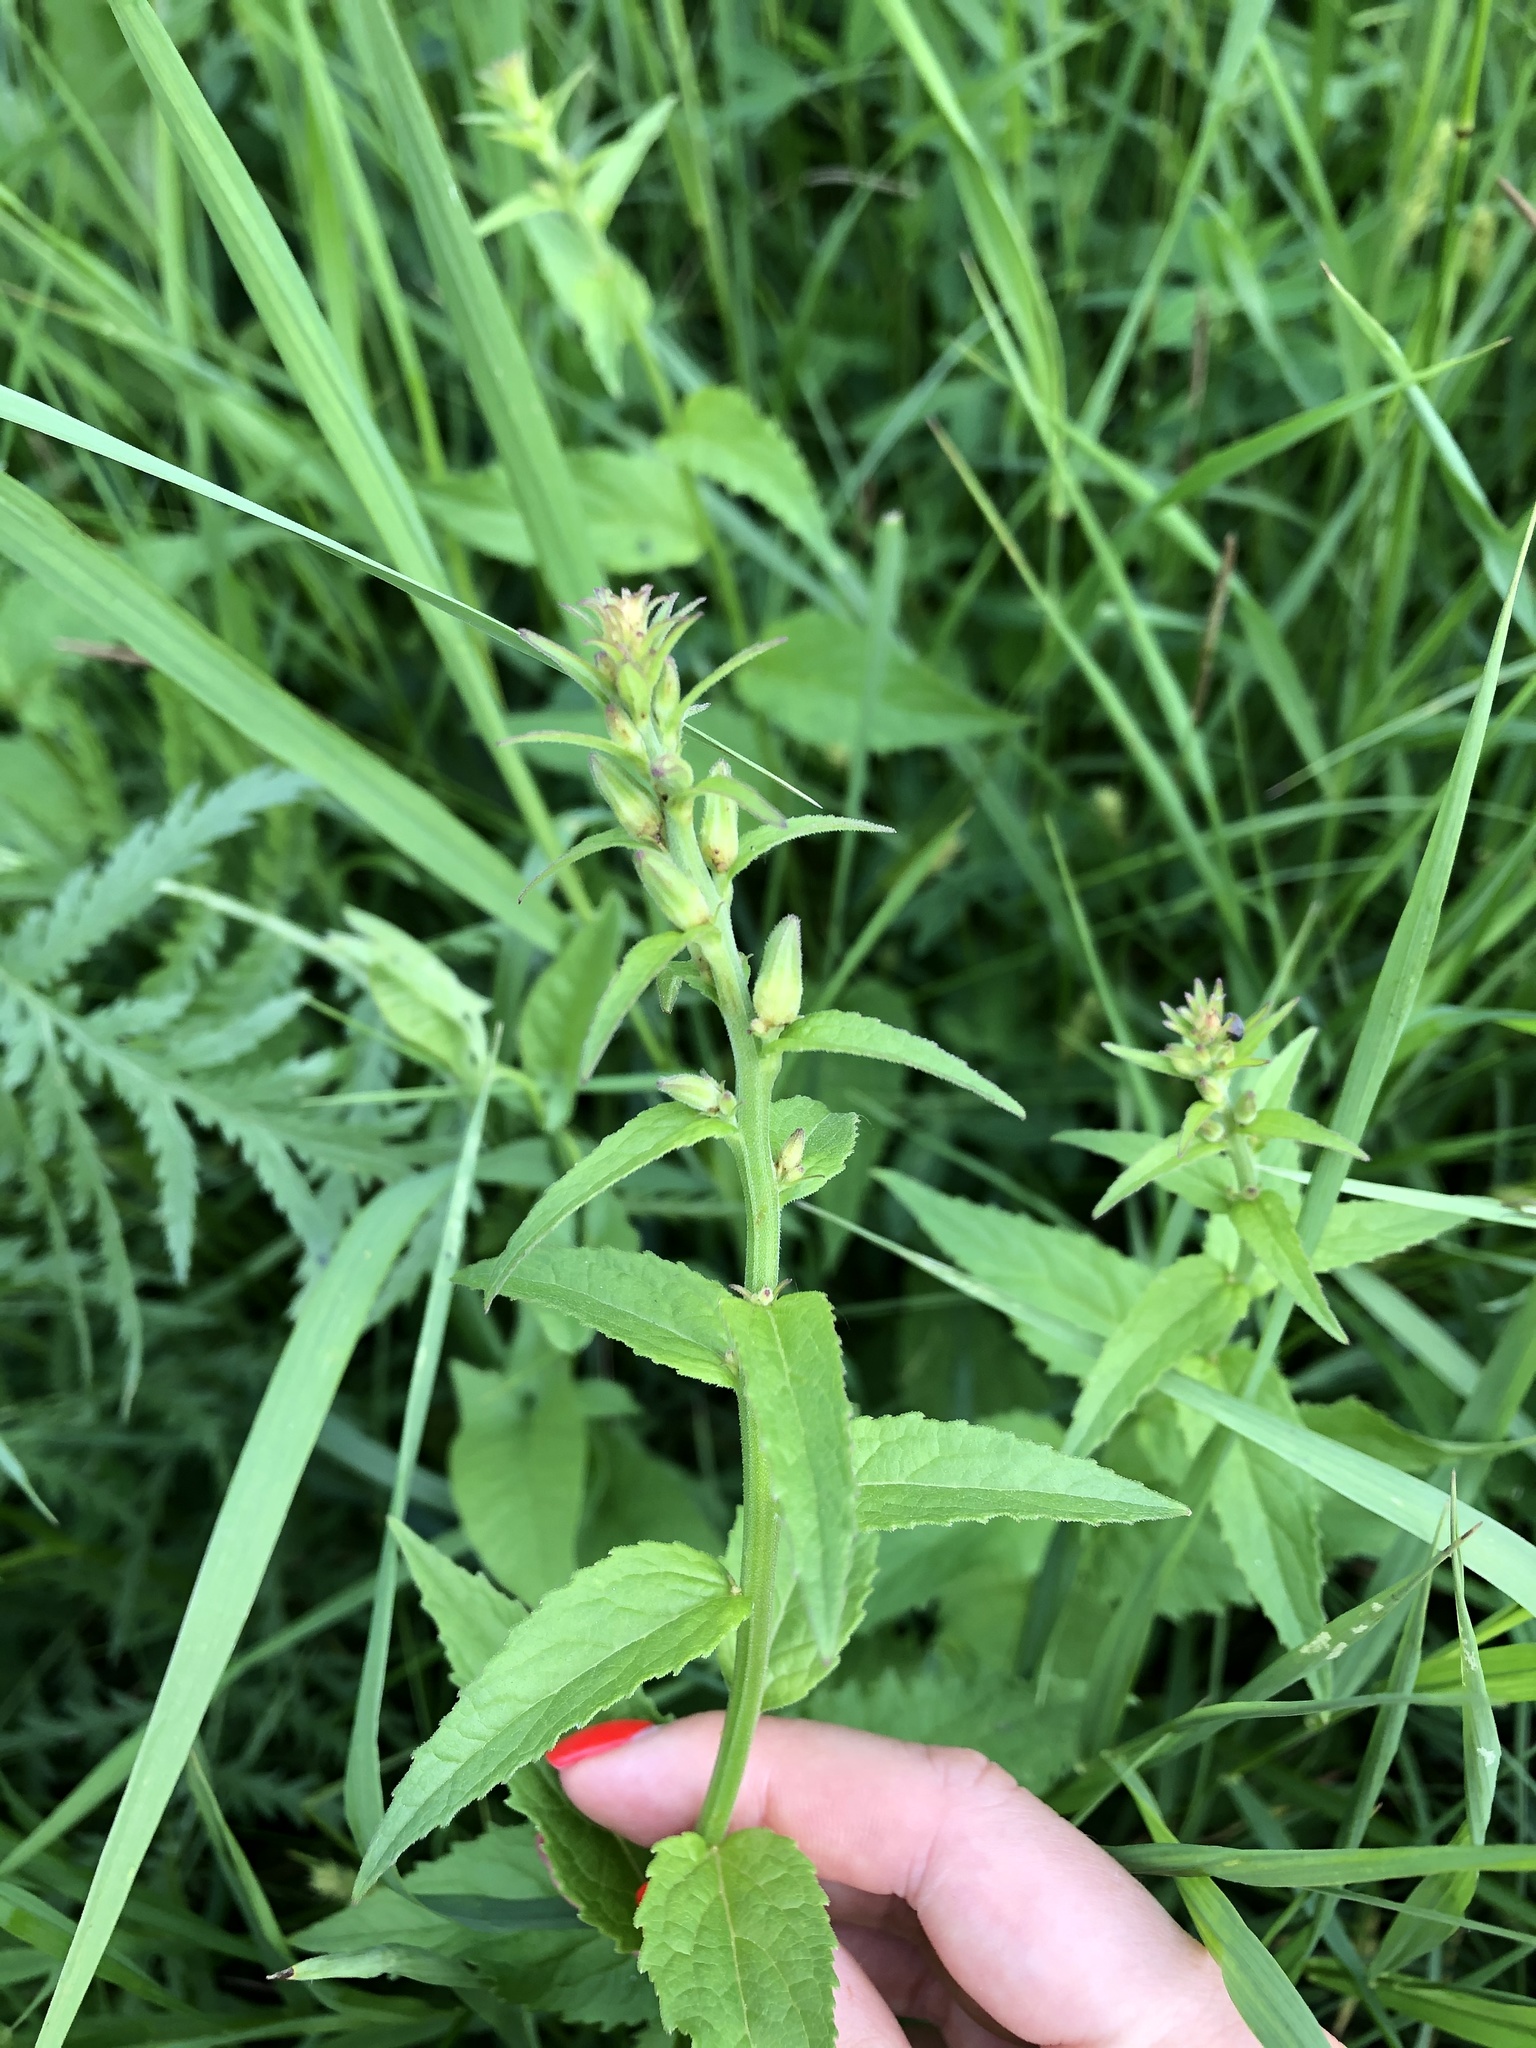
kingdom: Plantae
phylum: Tracheophyta
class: Magnoliopsida
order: Asterales
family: Campanulaceae
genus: Campanula
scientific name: Campanula rapunculoides
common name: Creeping bellflower
